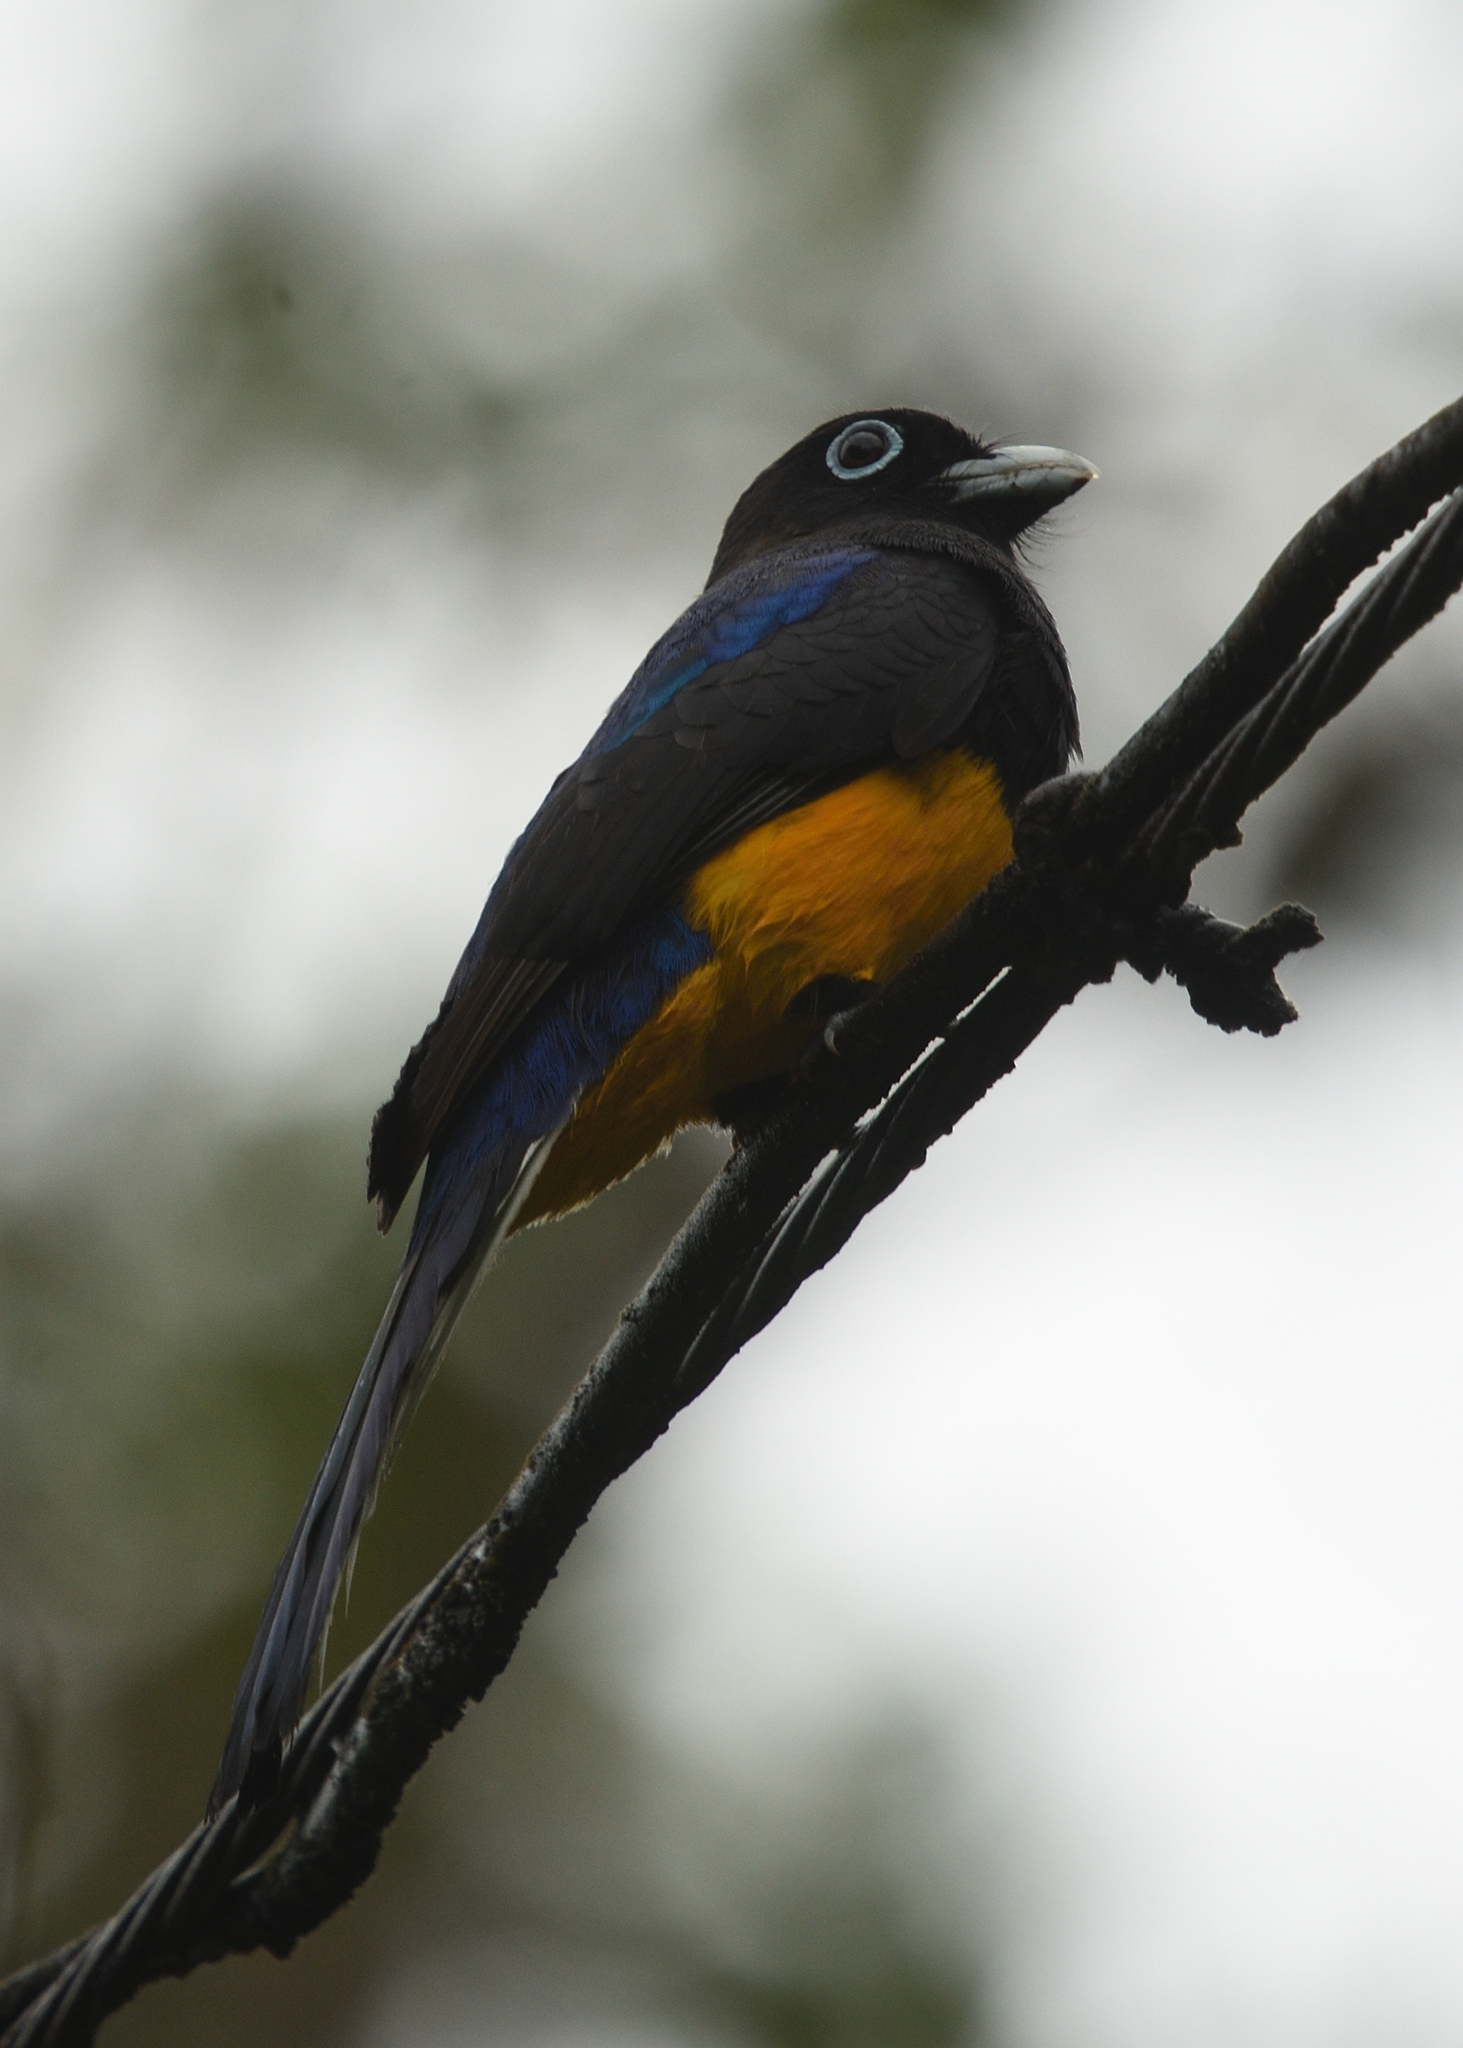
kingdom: Animalia
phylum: Chordata
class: Aves
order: Trogoniformes
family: Trogonidae
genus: Trogon
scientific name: Trogon chionurus
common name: White-tailed trogon
